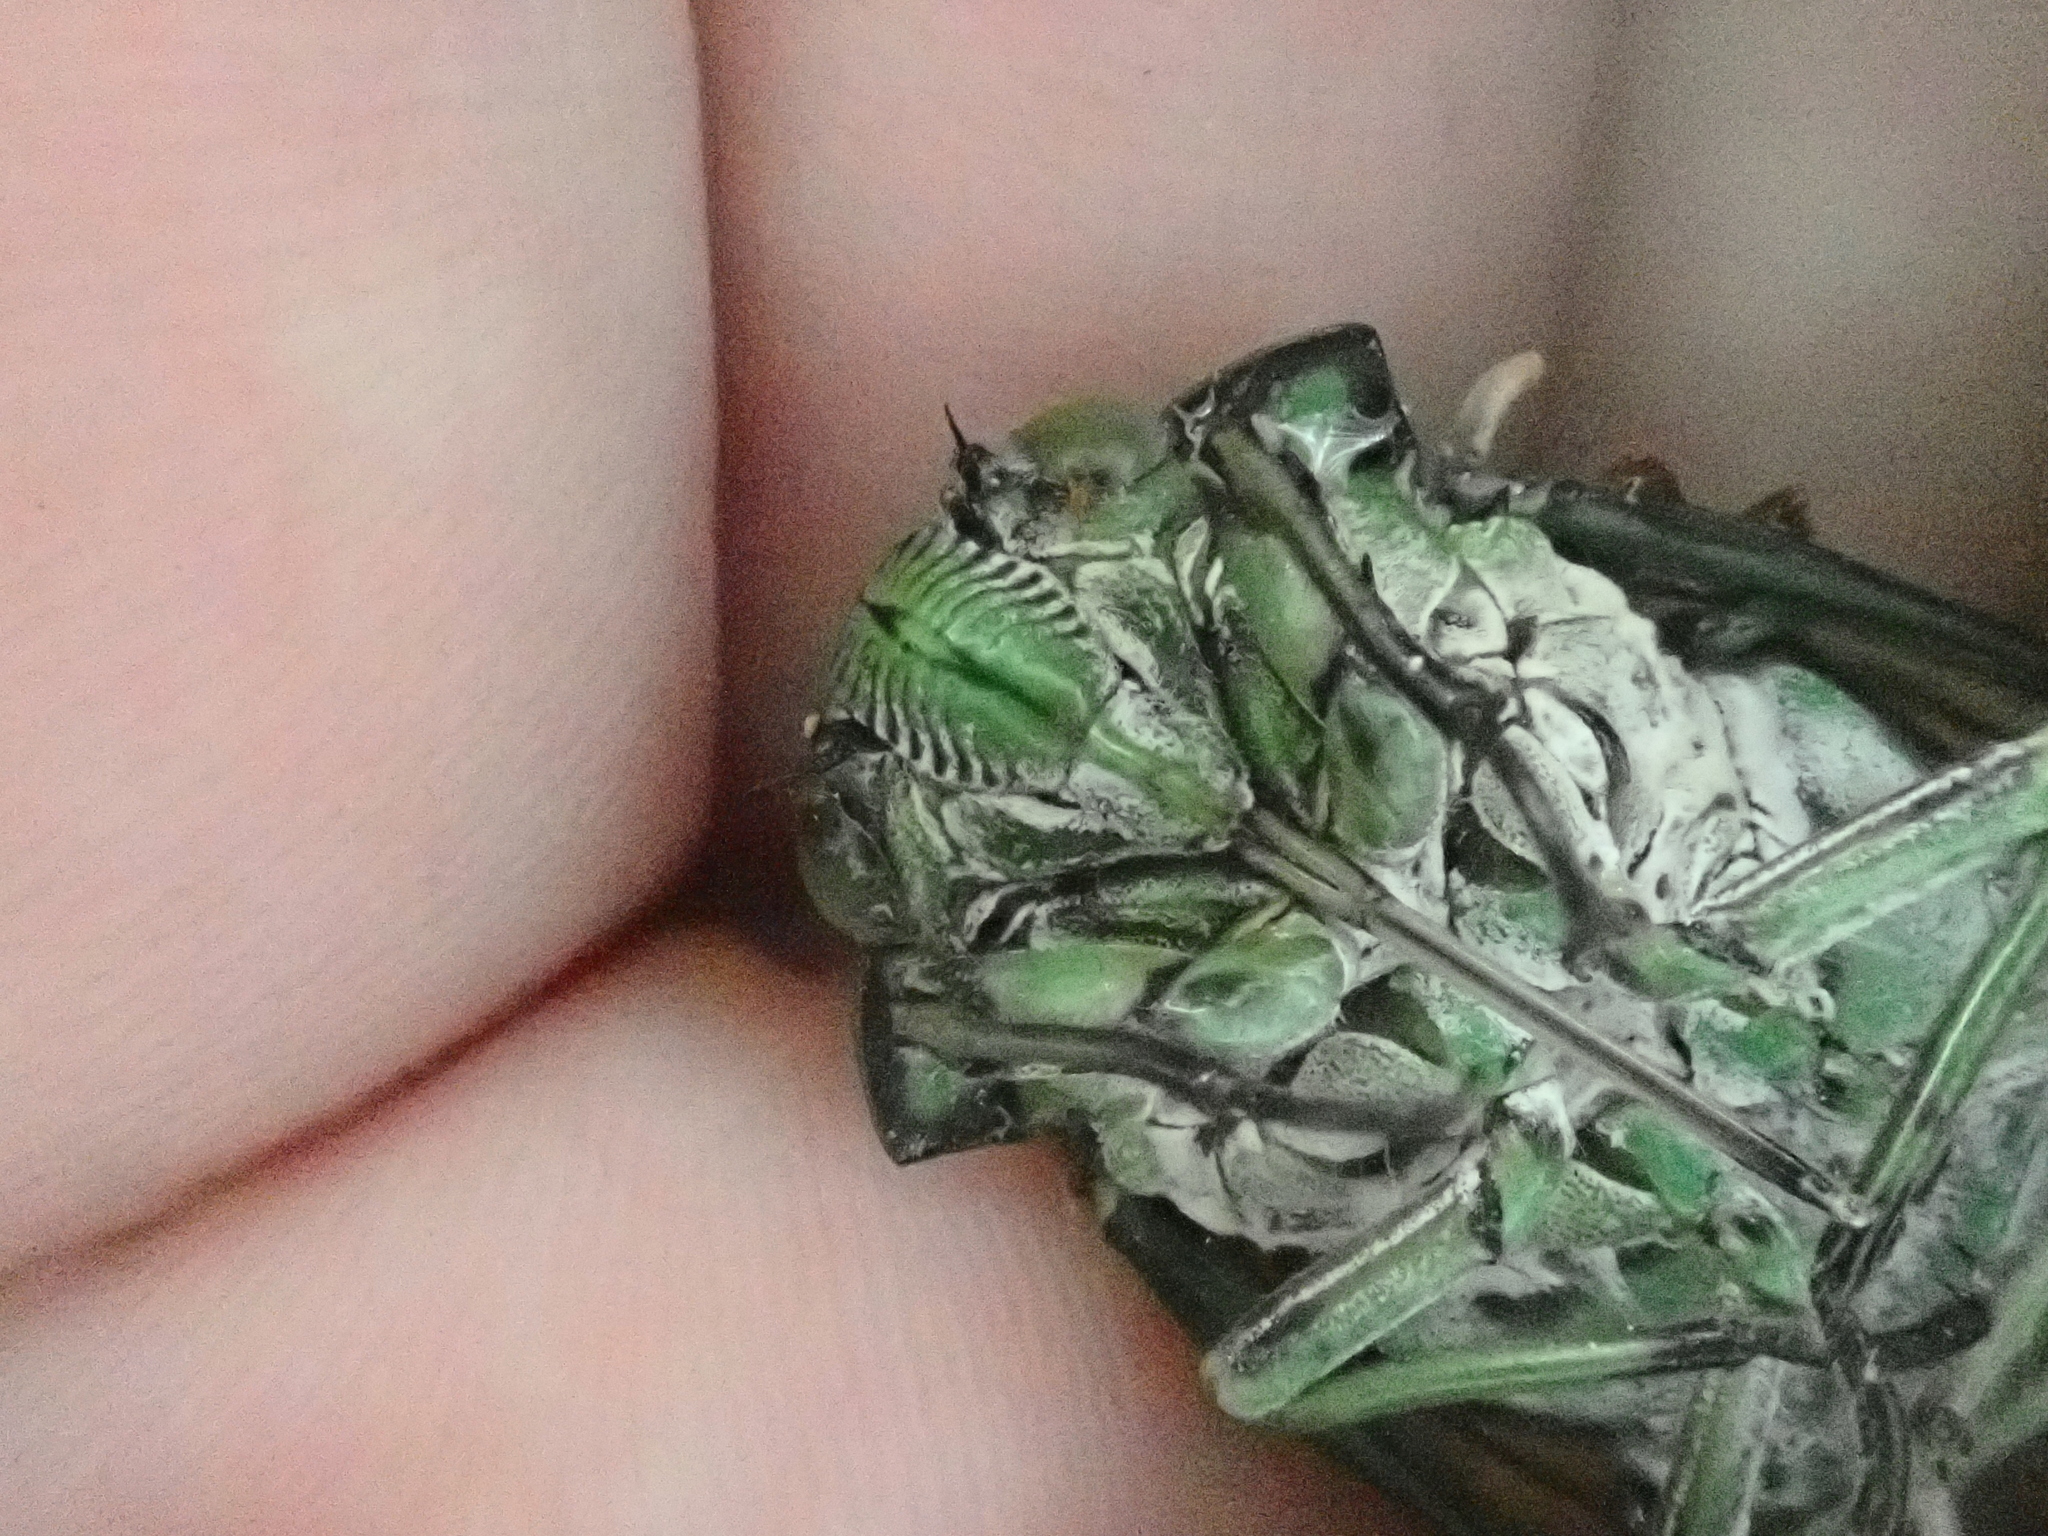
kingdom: Animalia
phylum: Arthropoda
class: Insecta
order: Hemiptera
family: Cicadidae
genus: Zammara
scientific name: Zammara tympanum
